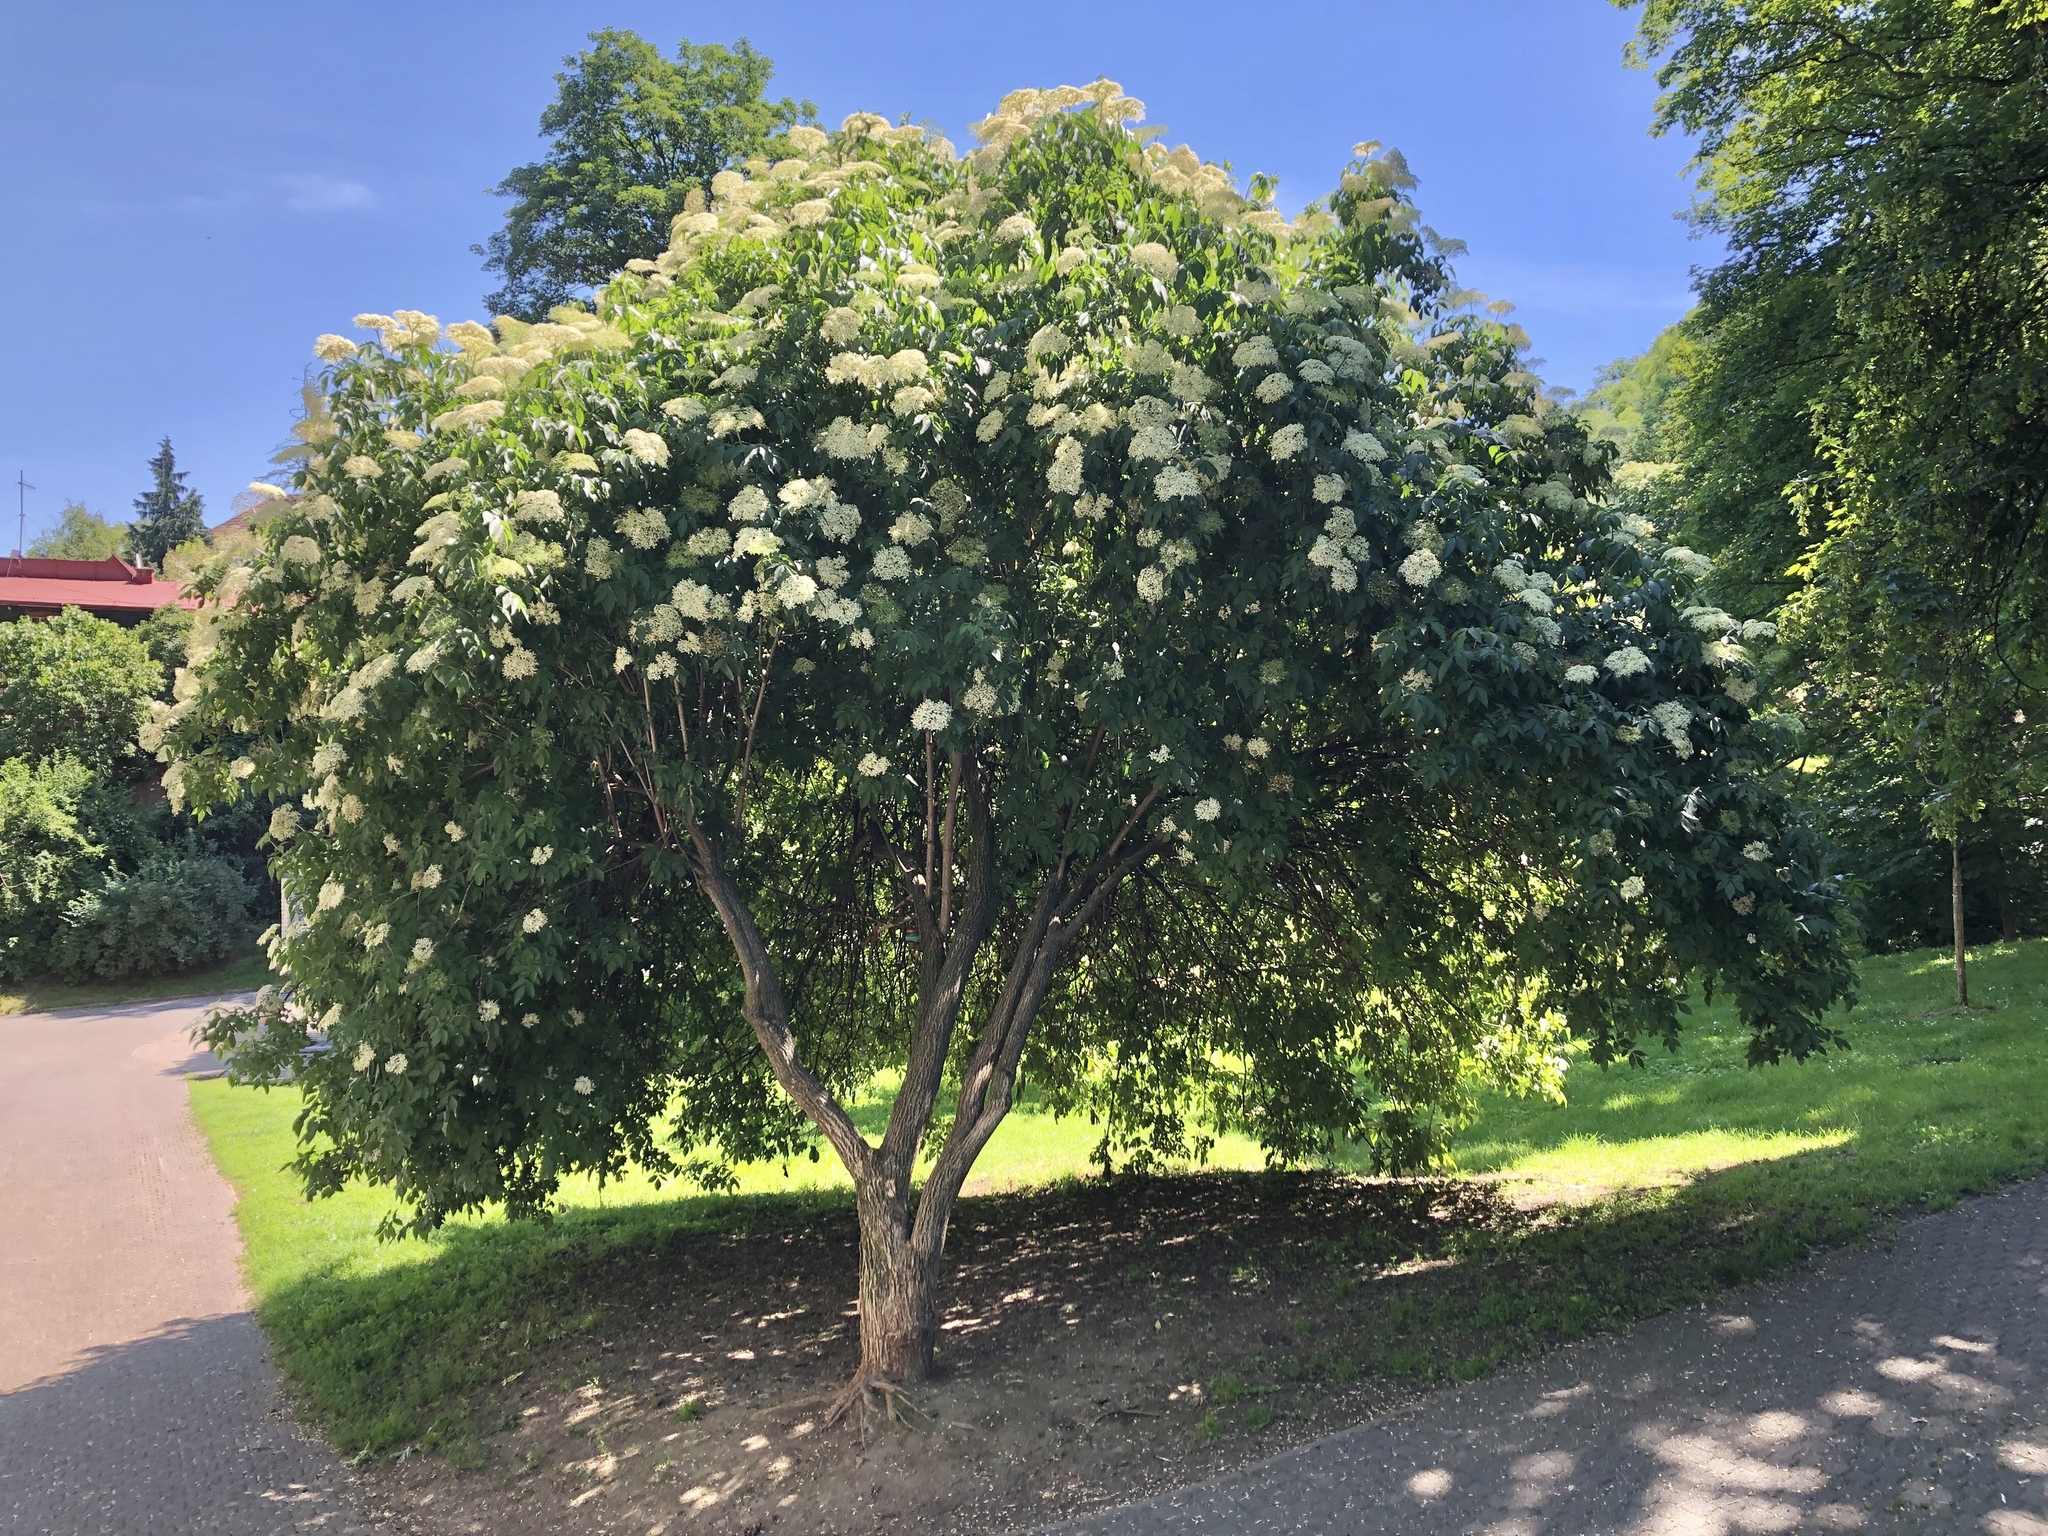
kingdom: Plantae
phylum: Tracheophyta
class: Magnoliopsida
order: Dipsacales
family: Viburnaceae
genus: Sambucus
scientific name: Sambucus nigra
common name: Elder
